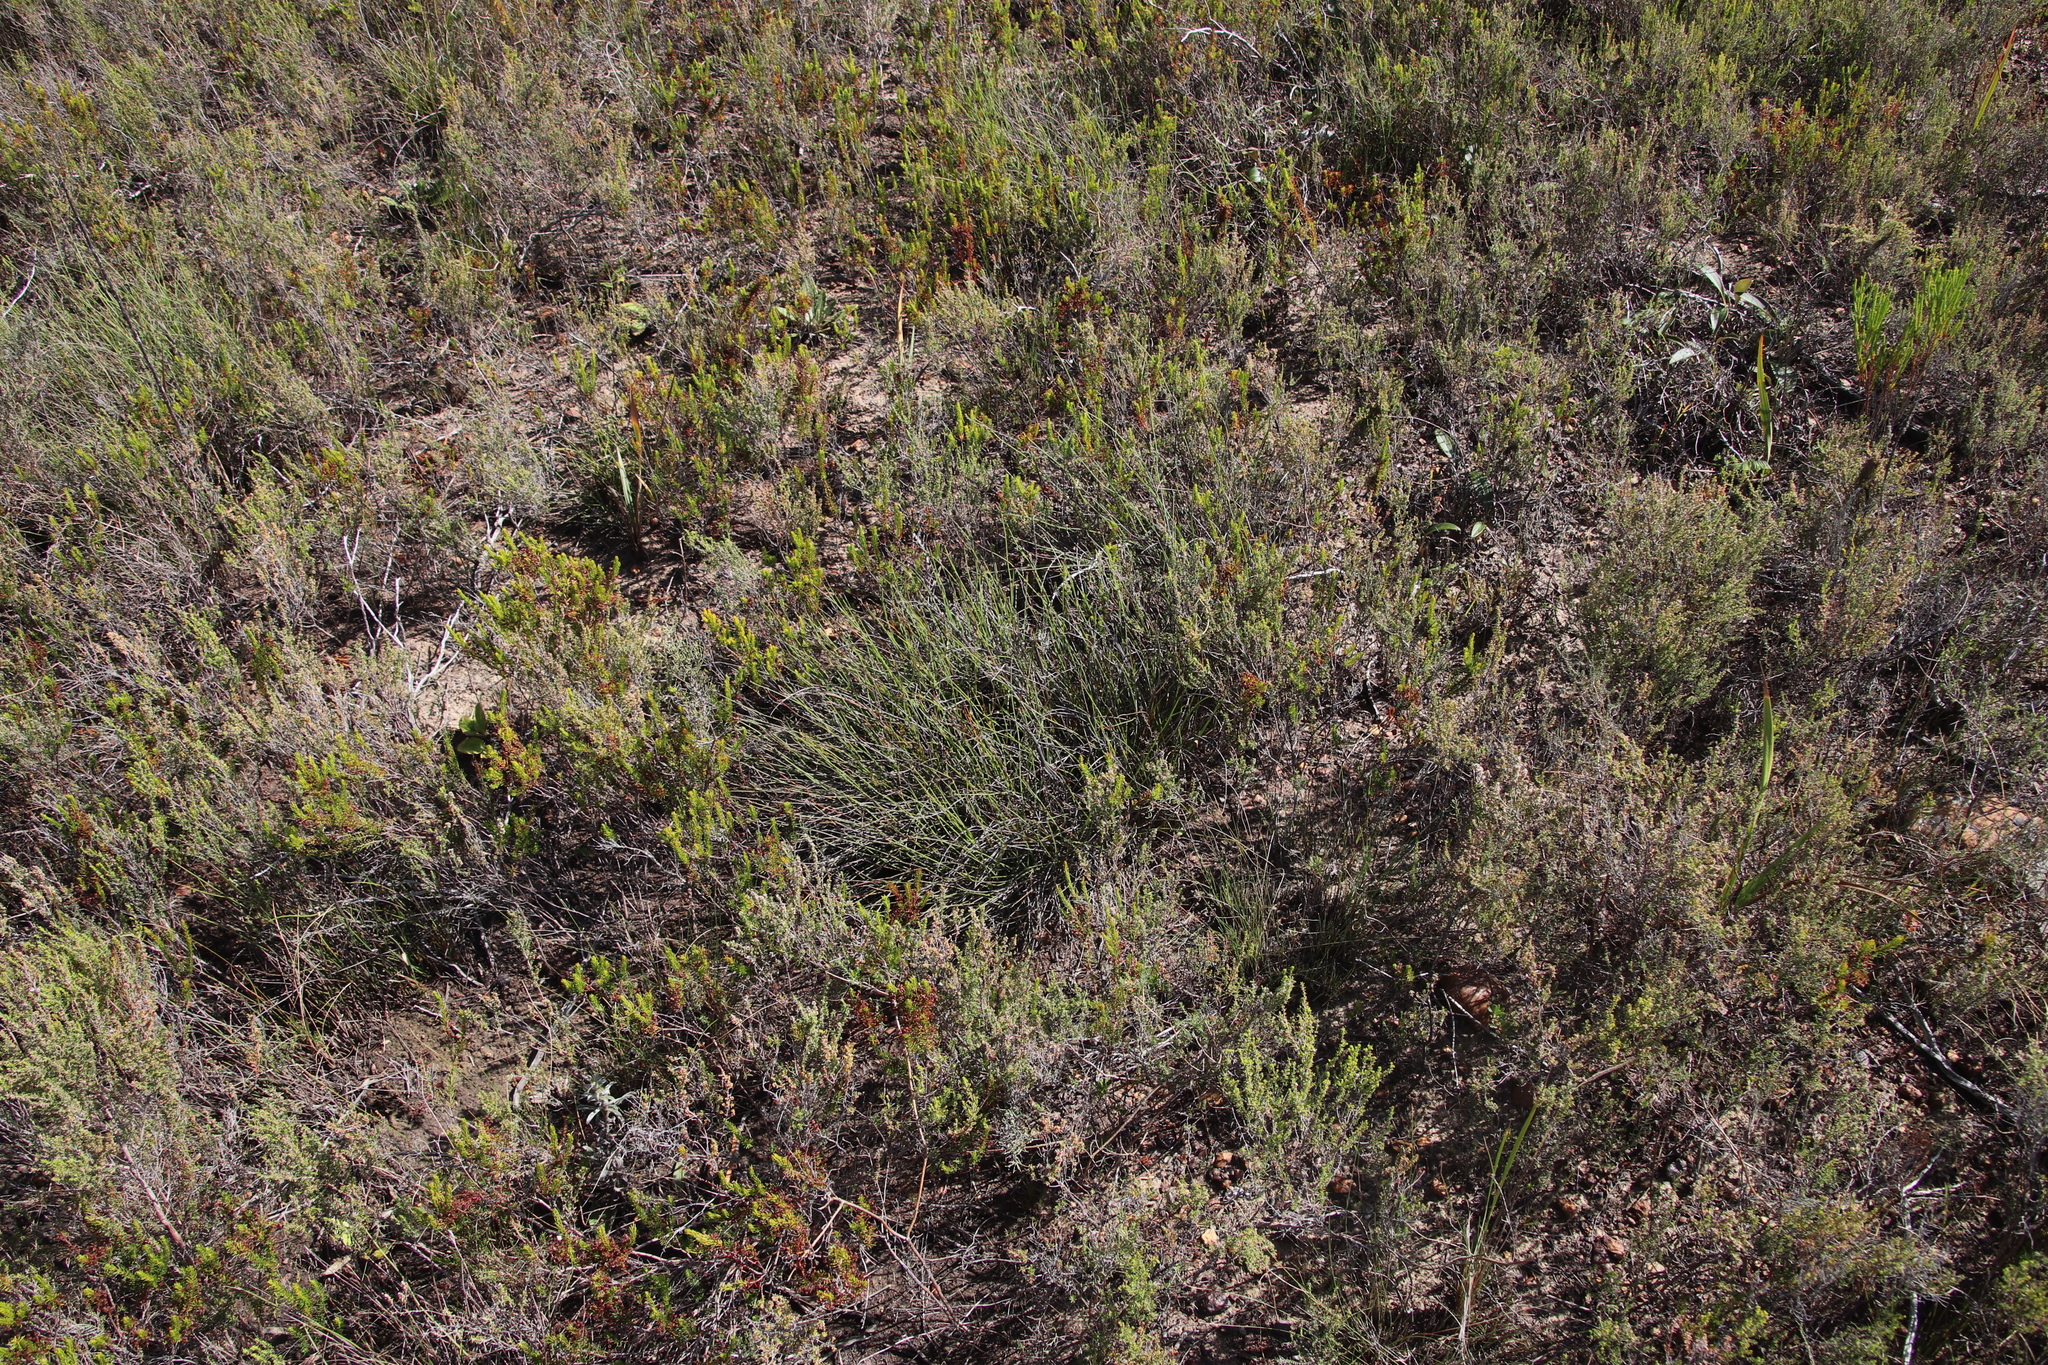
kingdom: Plantae
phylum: Tracheophyta
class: Liliopsida
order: Poales
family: Restionaceae
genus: Elegia
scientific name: Elegia squamosa
